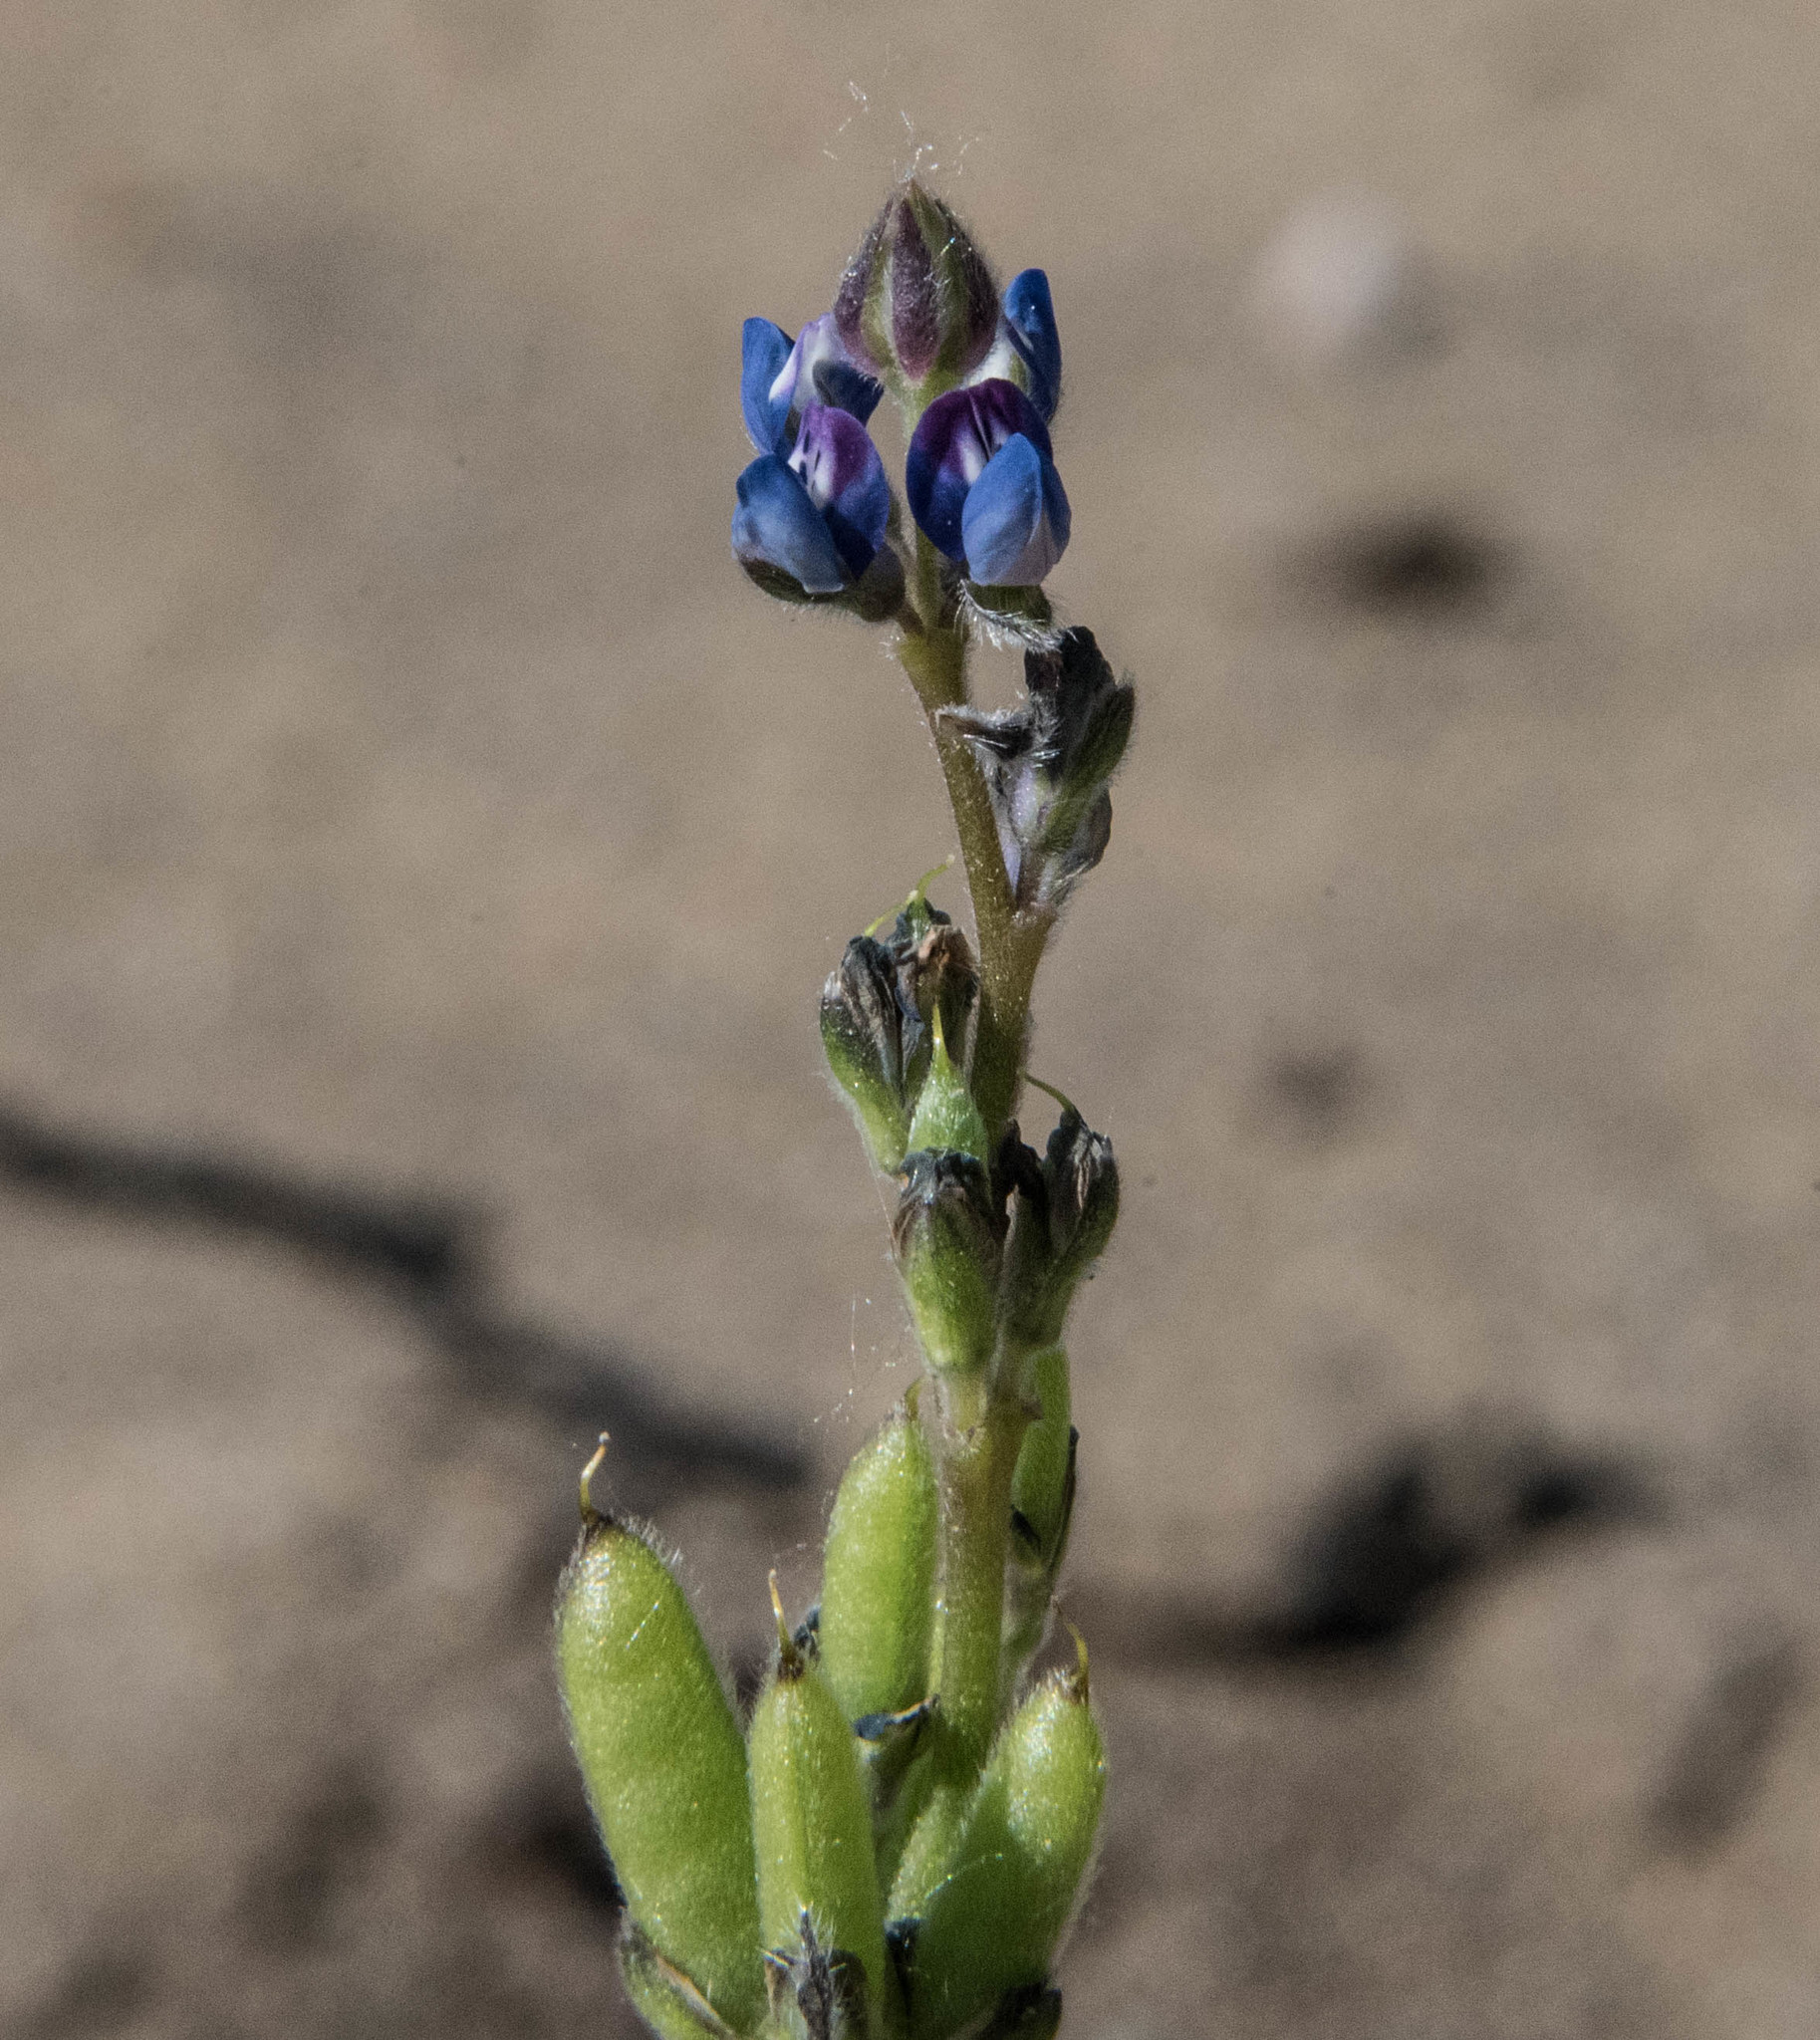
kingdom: Plantae
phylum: Tracheophyta
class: Magnoliopsida
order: Fabales
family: Fabaceae
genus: Lupinus
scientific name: Lupinus bicolor
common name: Miniature lupine
